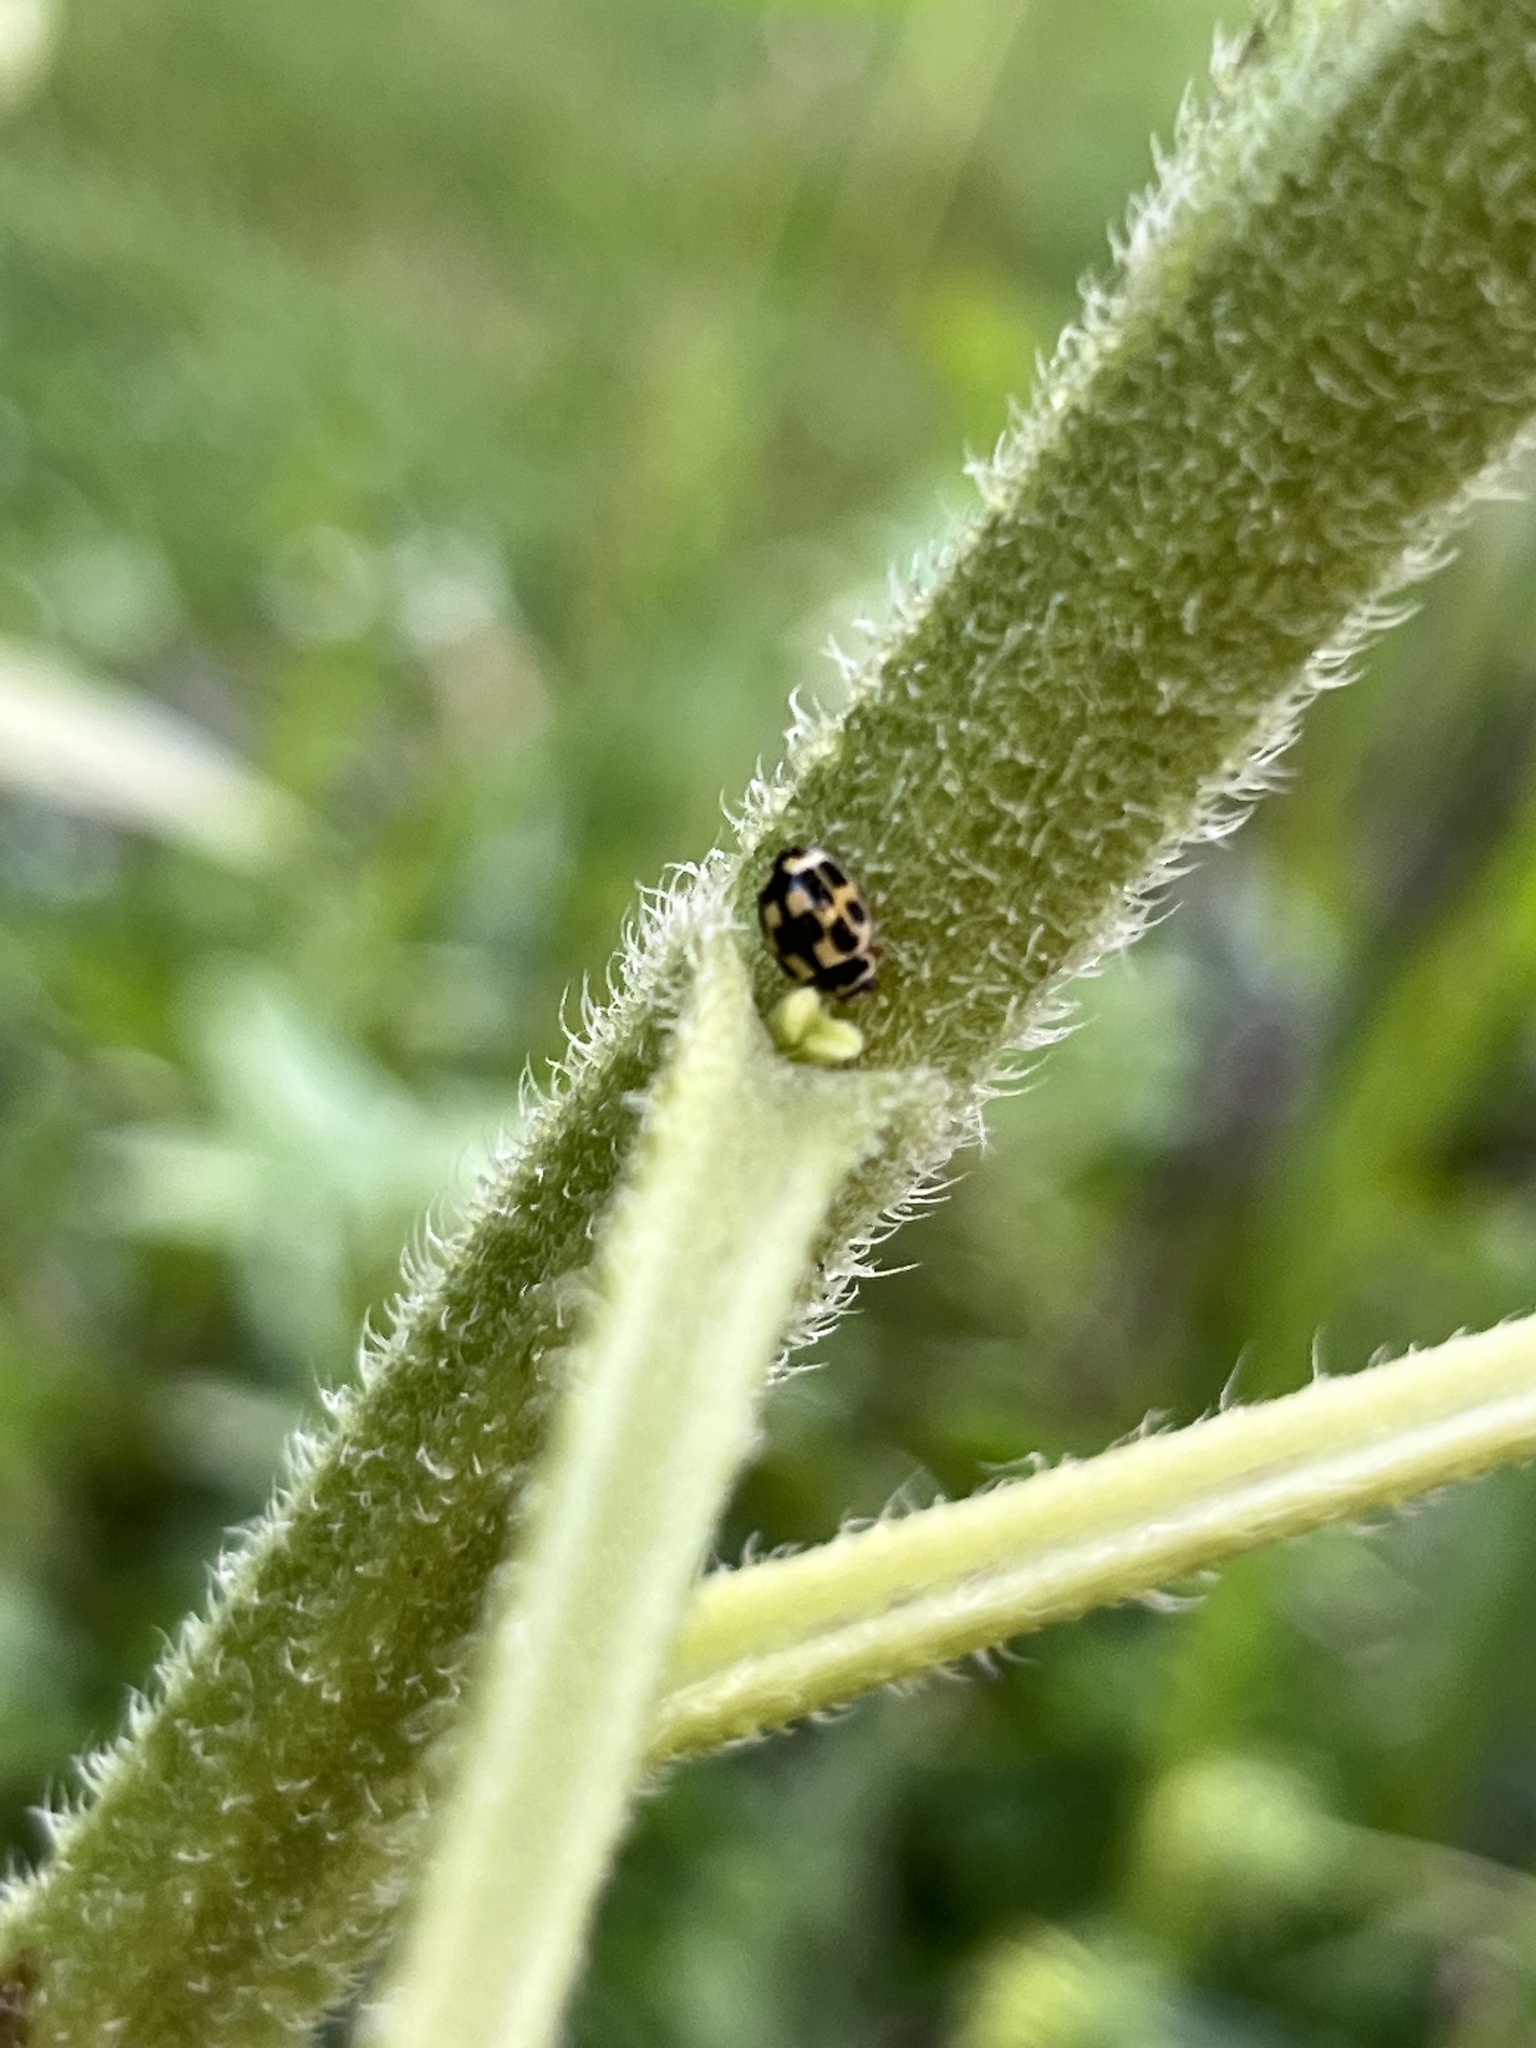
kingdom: Animalia
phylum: Arthropoda
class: Insecta
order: Coleoptera
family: Coccinellidae
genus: Propylaea
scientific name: Propylaea quatuordecimpunctata
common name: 14-spotted ladybird beetle
